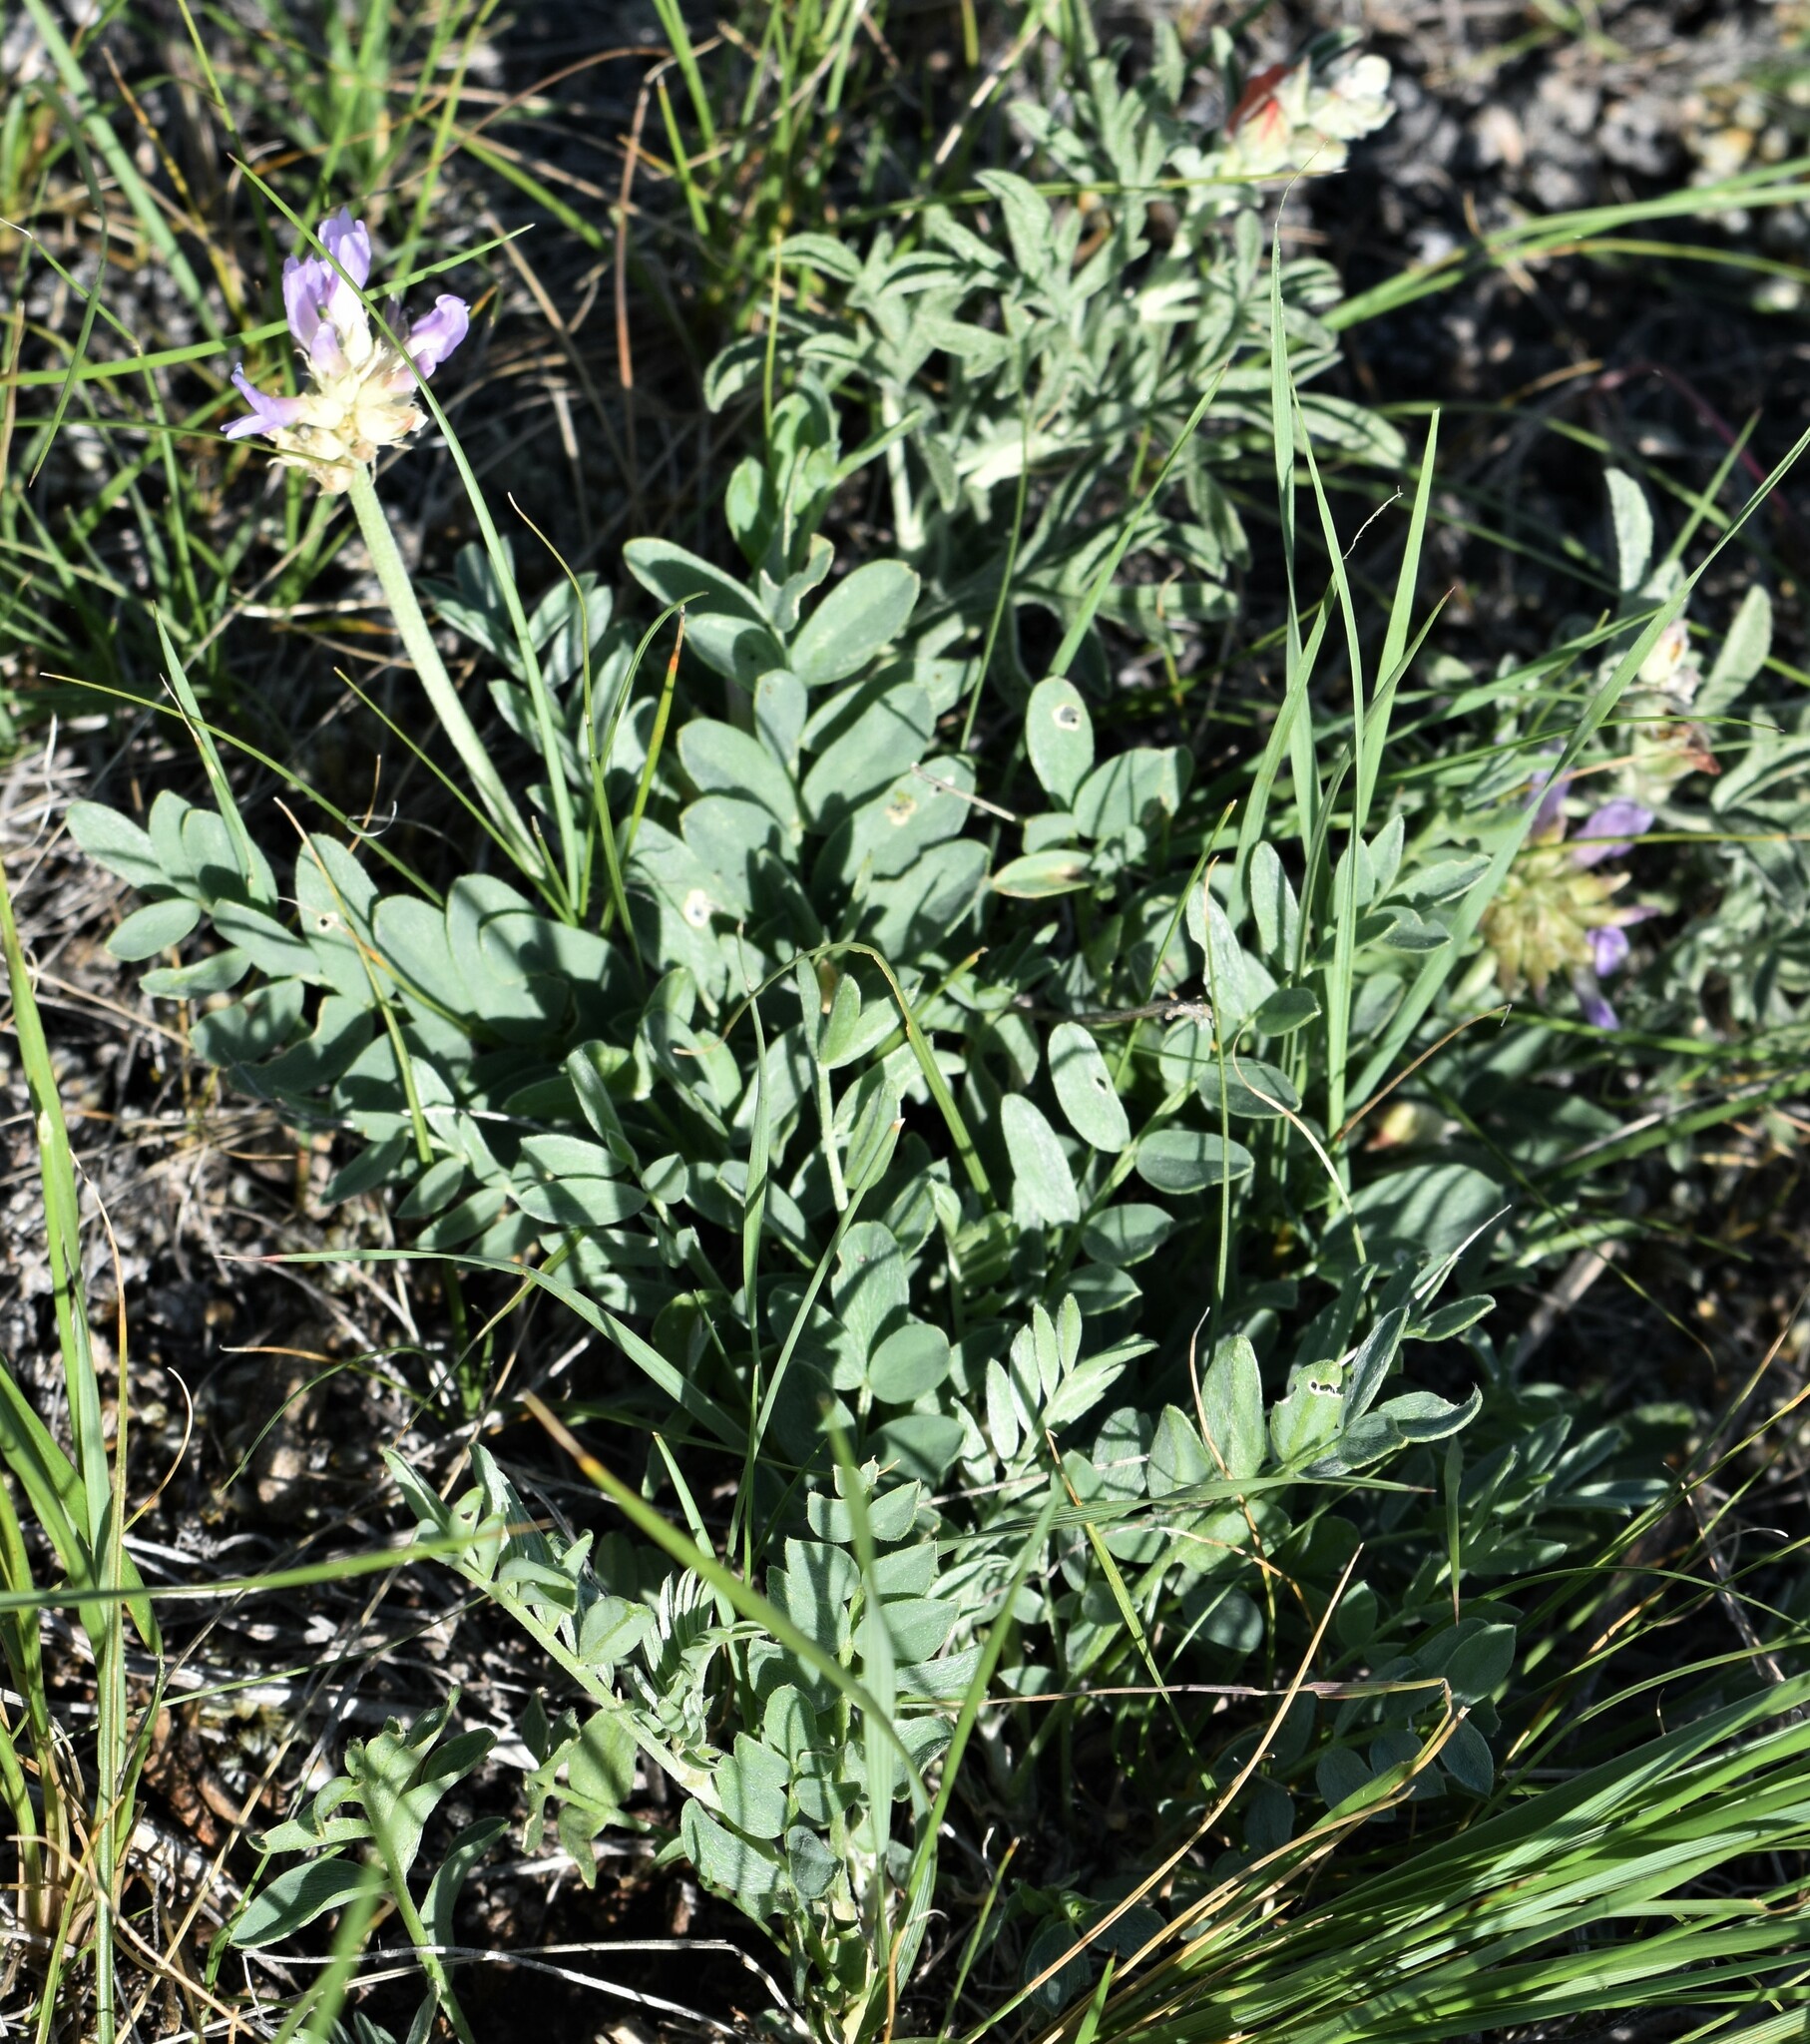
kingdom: Plantae
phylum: Tracheophyta
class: Magnoliopsida
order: Fabales
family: Fabaceae
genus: Astragalus
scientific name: Astragalus laxmannii
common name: Laxmann's milk-vetch
